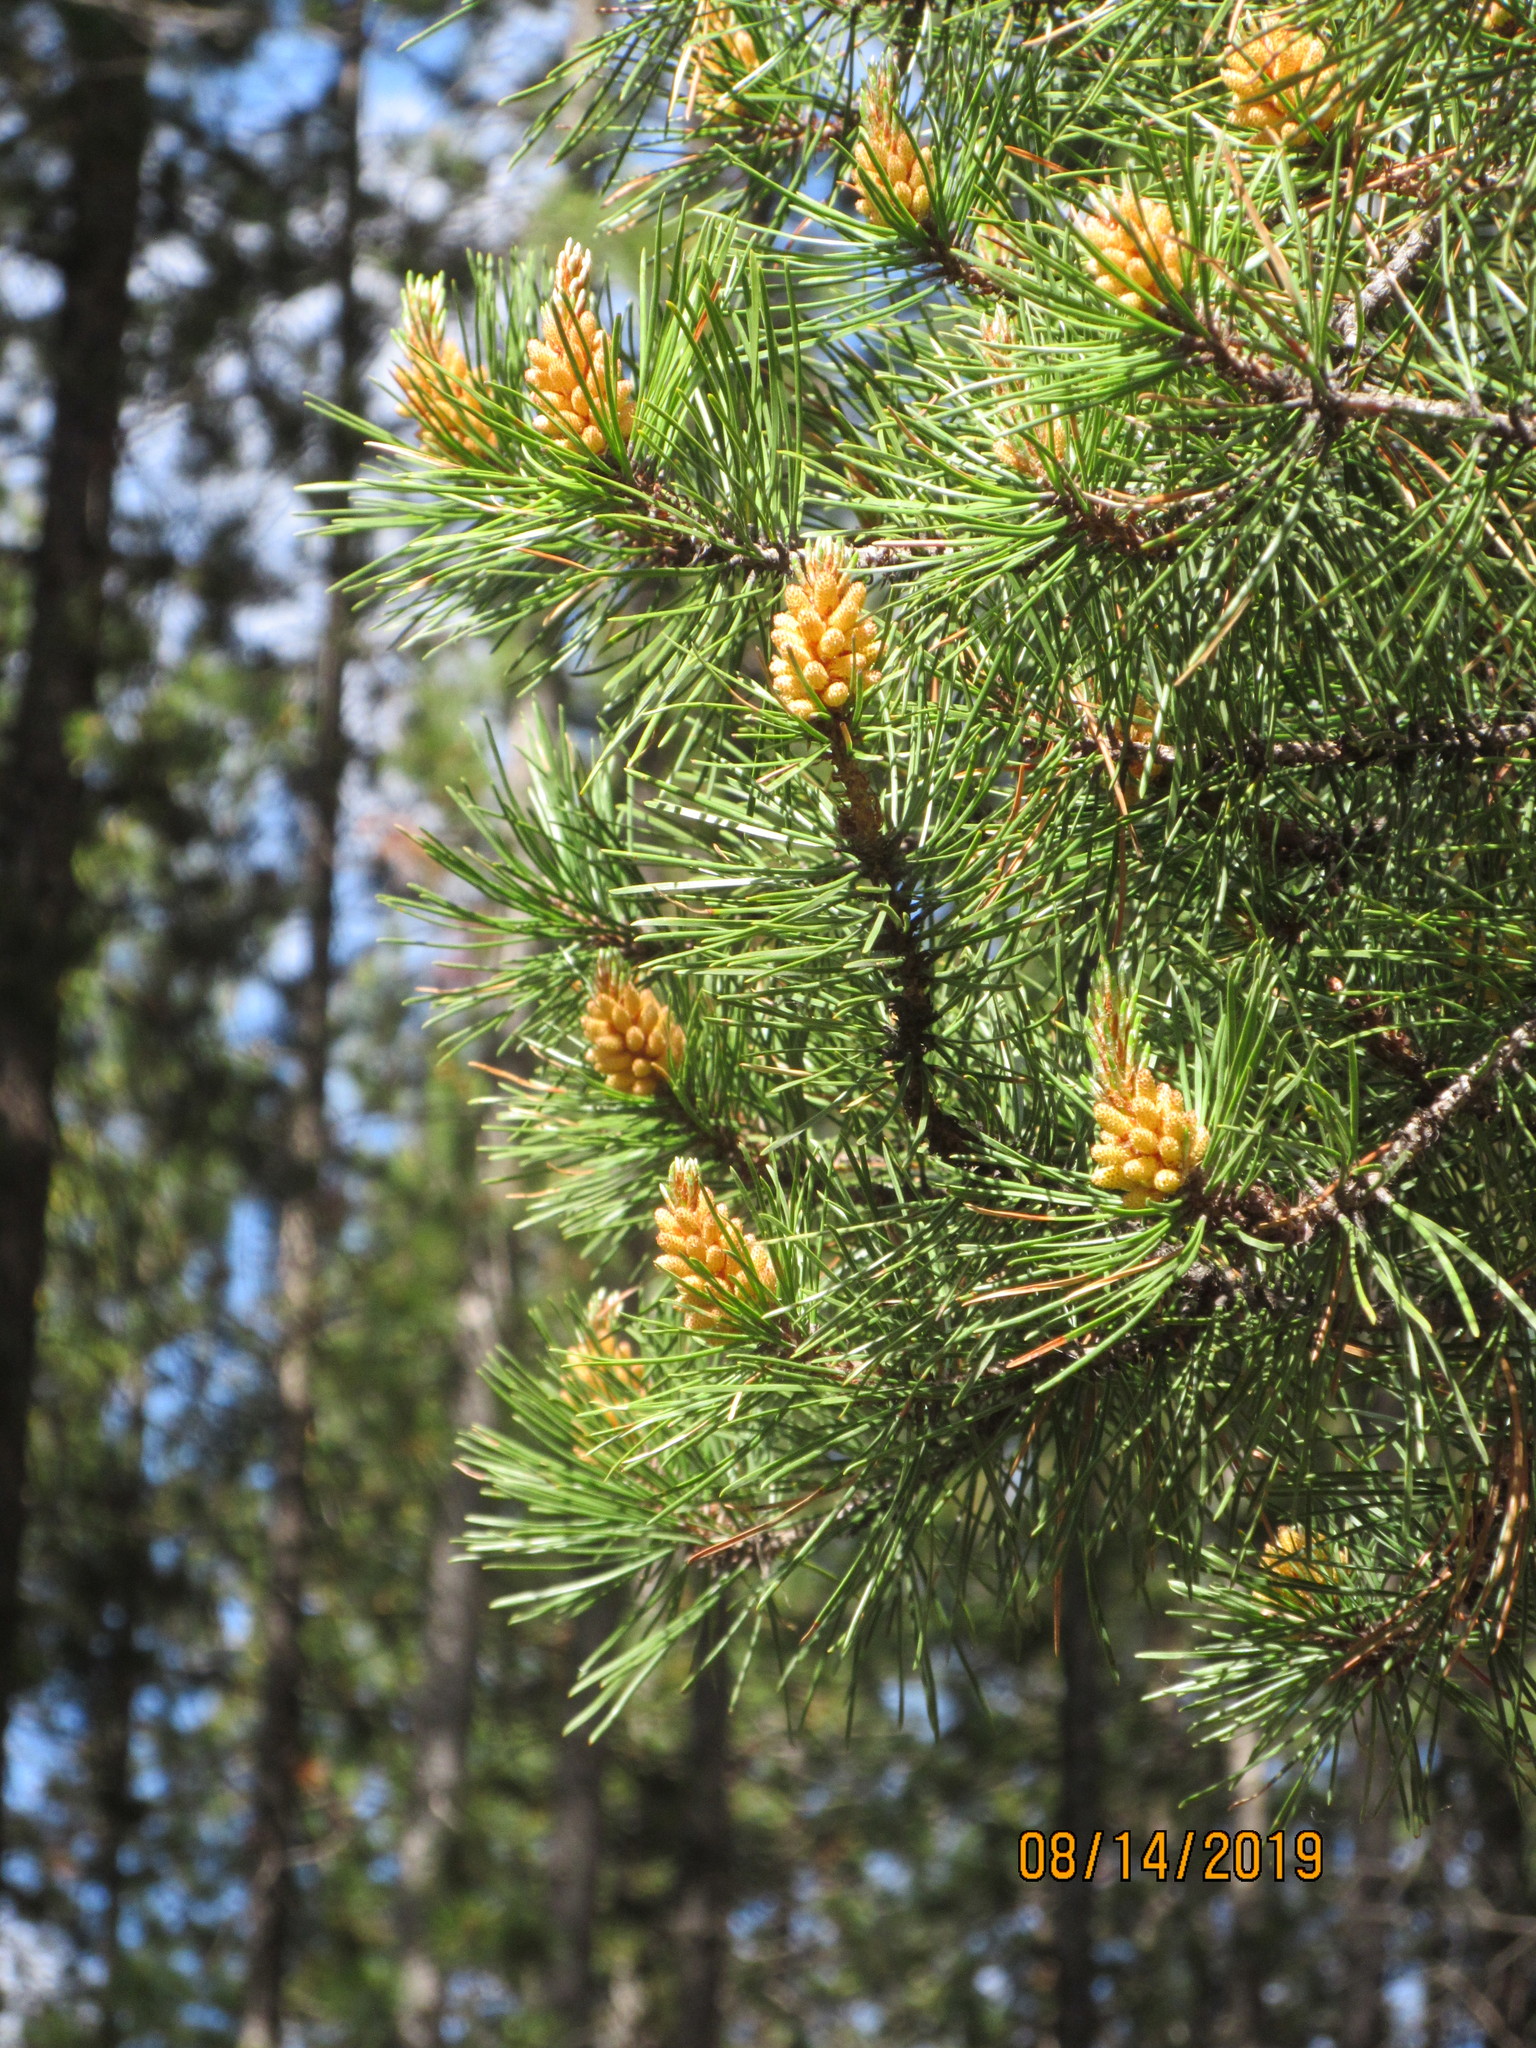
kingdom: Plantae
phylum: Tracheophyta
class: Pinopsida
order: Pinales
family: Pinaceae
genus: Pinus
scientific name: Pinus contorta
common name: Lodgepole pine
